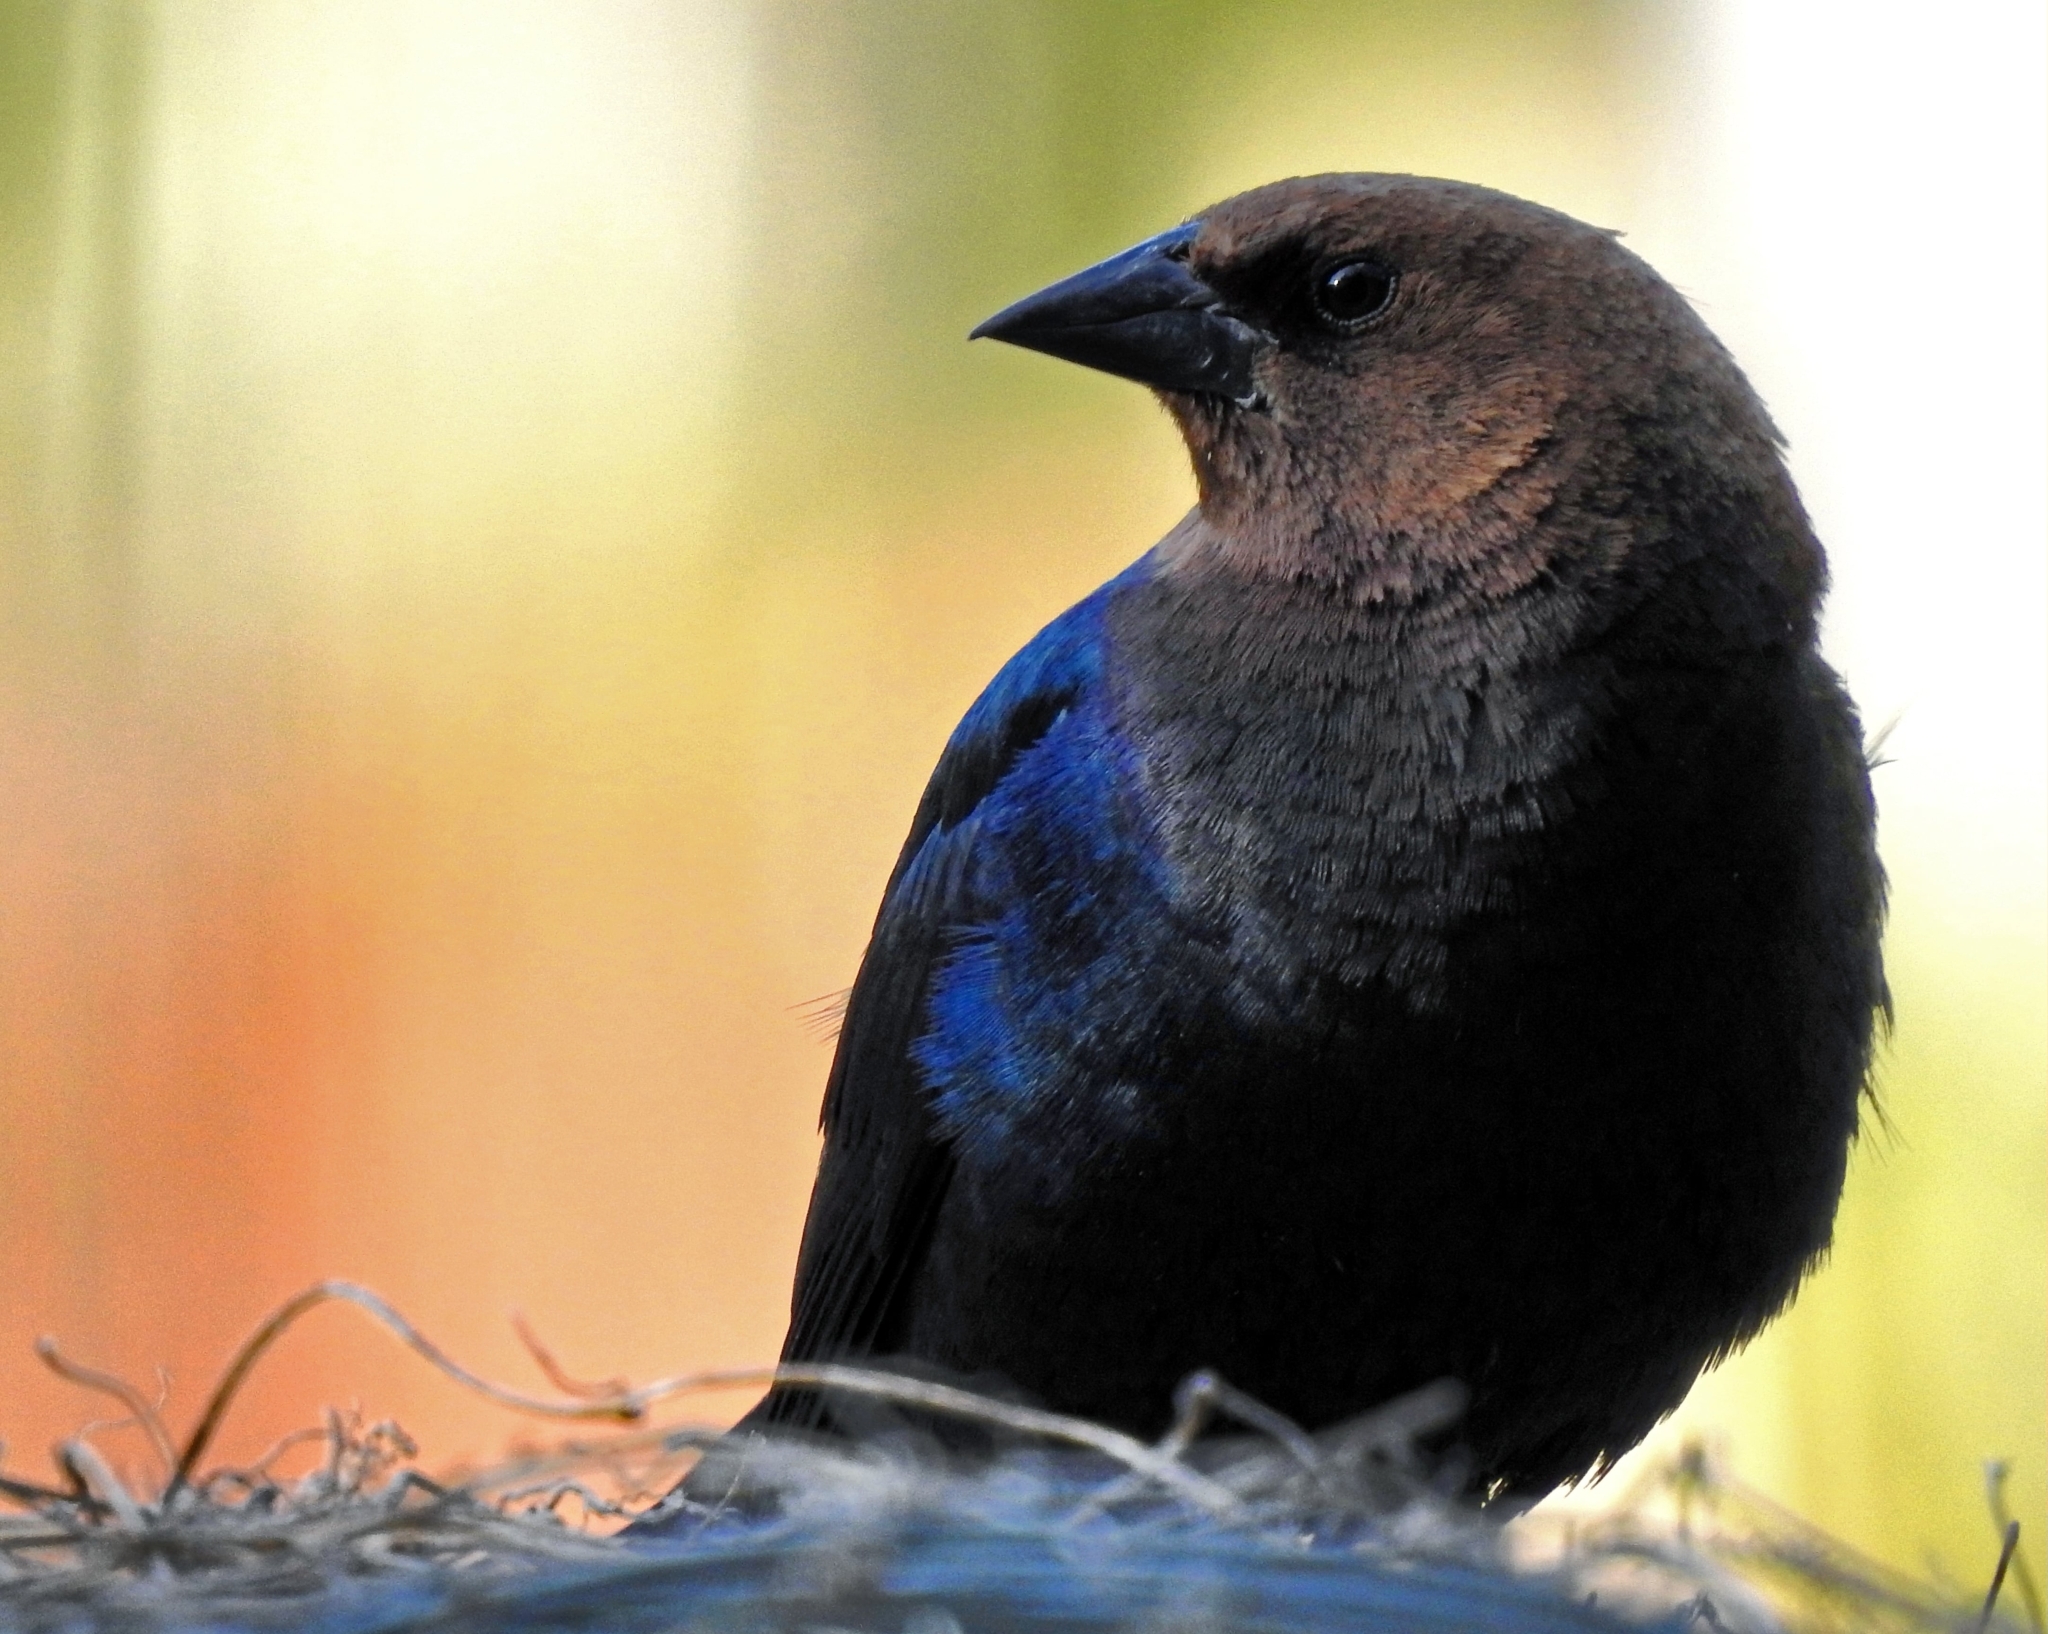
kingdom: Animalia
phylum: Chordata
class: Aves
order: Passeriformes
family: Icteridae
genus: Molothrus
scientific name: Molothrus ater
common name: Brown-headed cowbird
